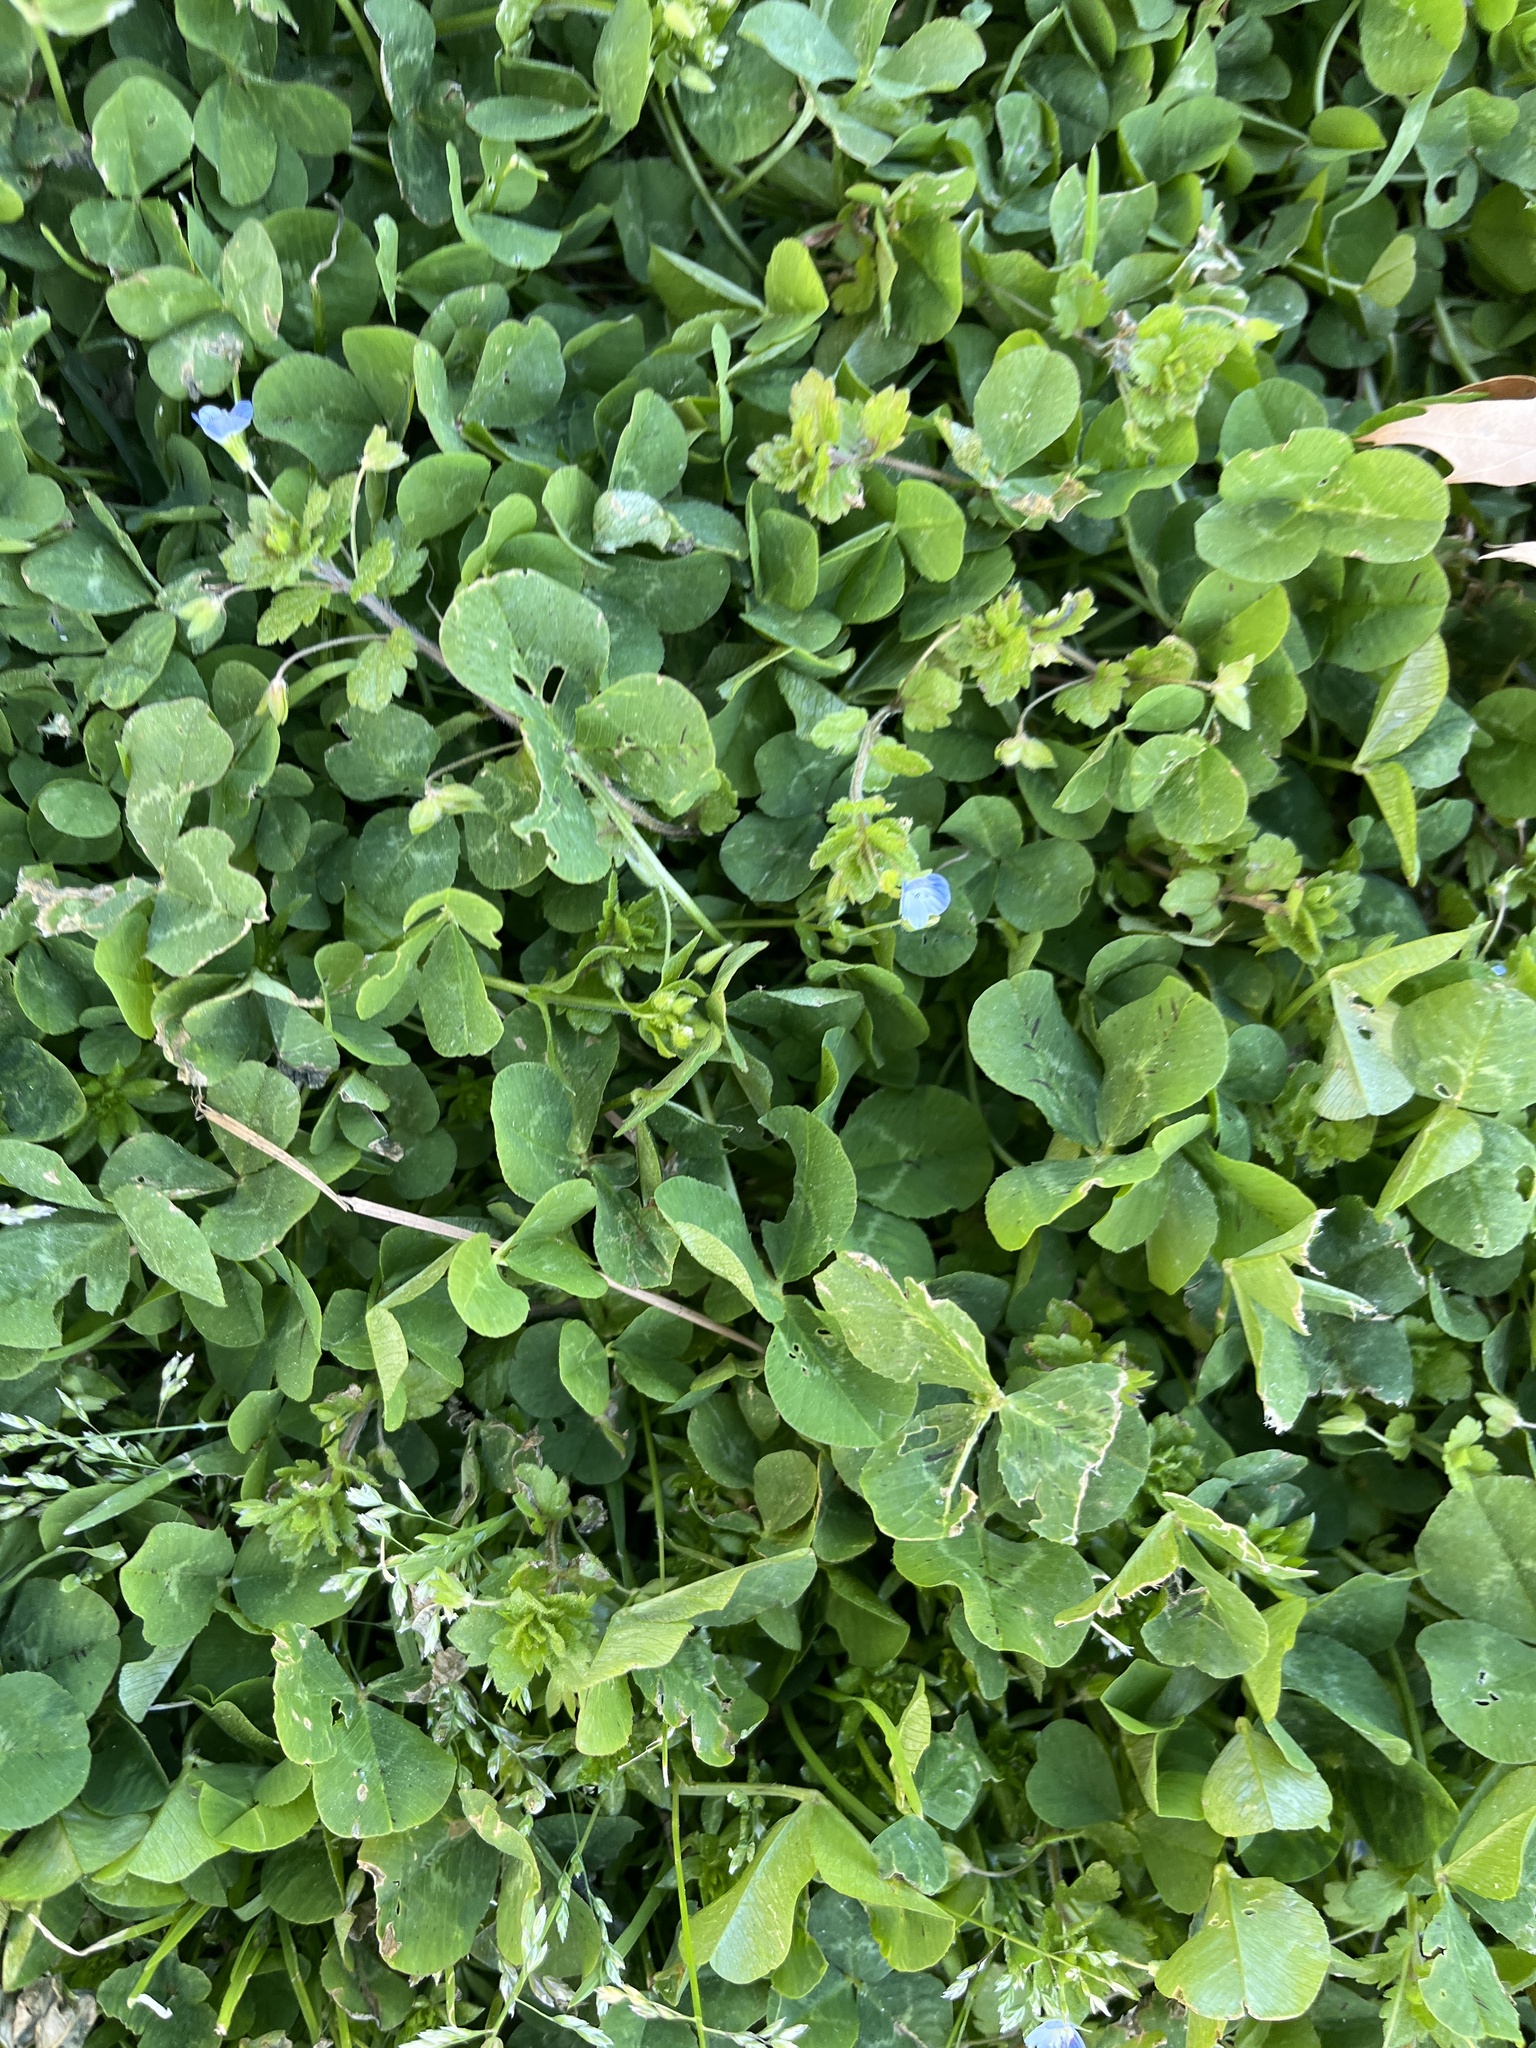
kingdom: Plantae
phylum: Tracheophyta
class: Magnoliopsida
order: Fabales
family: Fabaceae
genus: Trifolium
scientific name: Trifolium repens
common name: White clover
